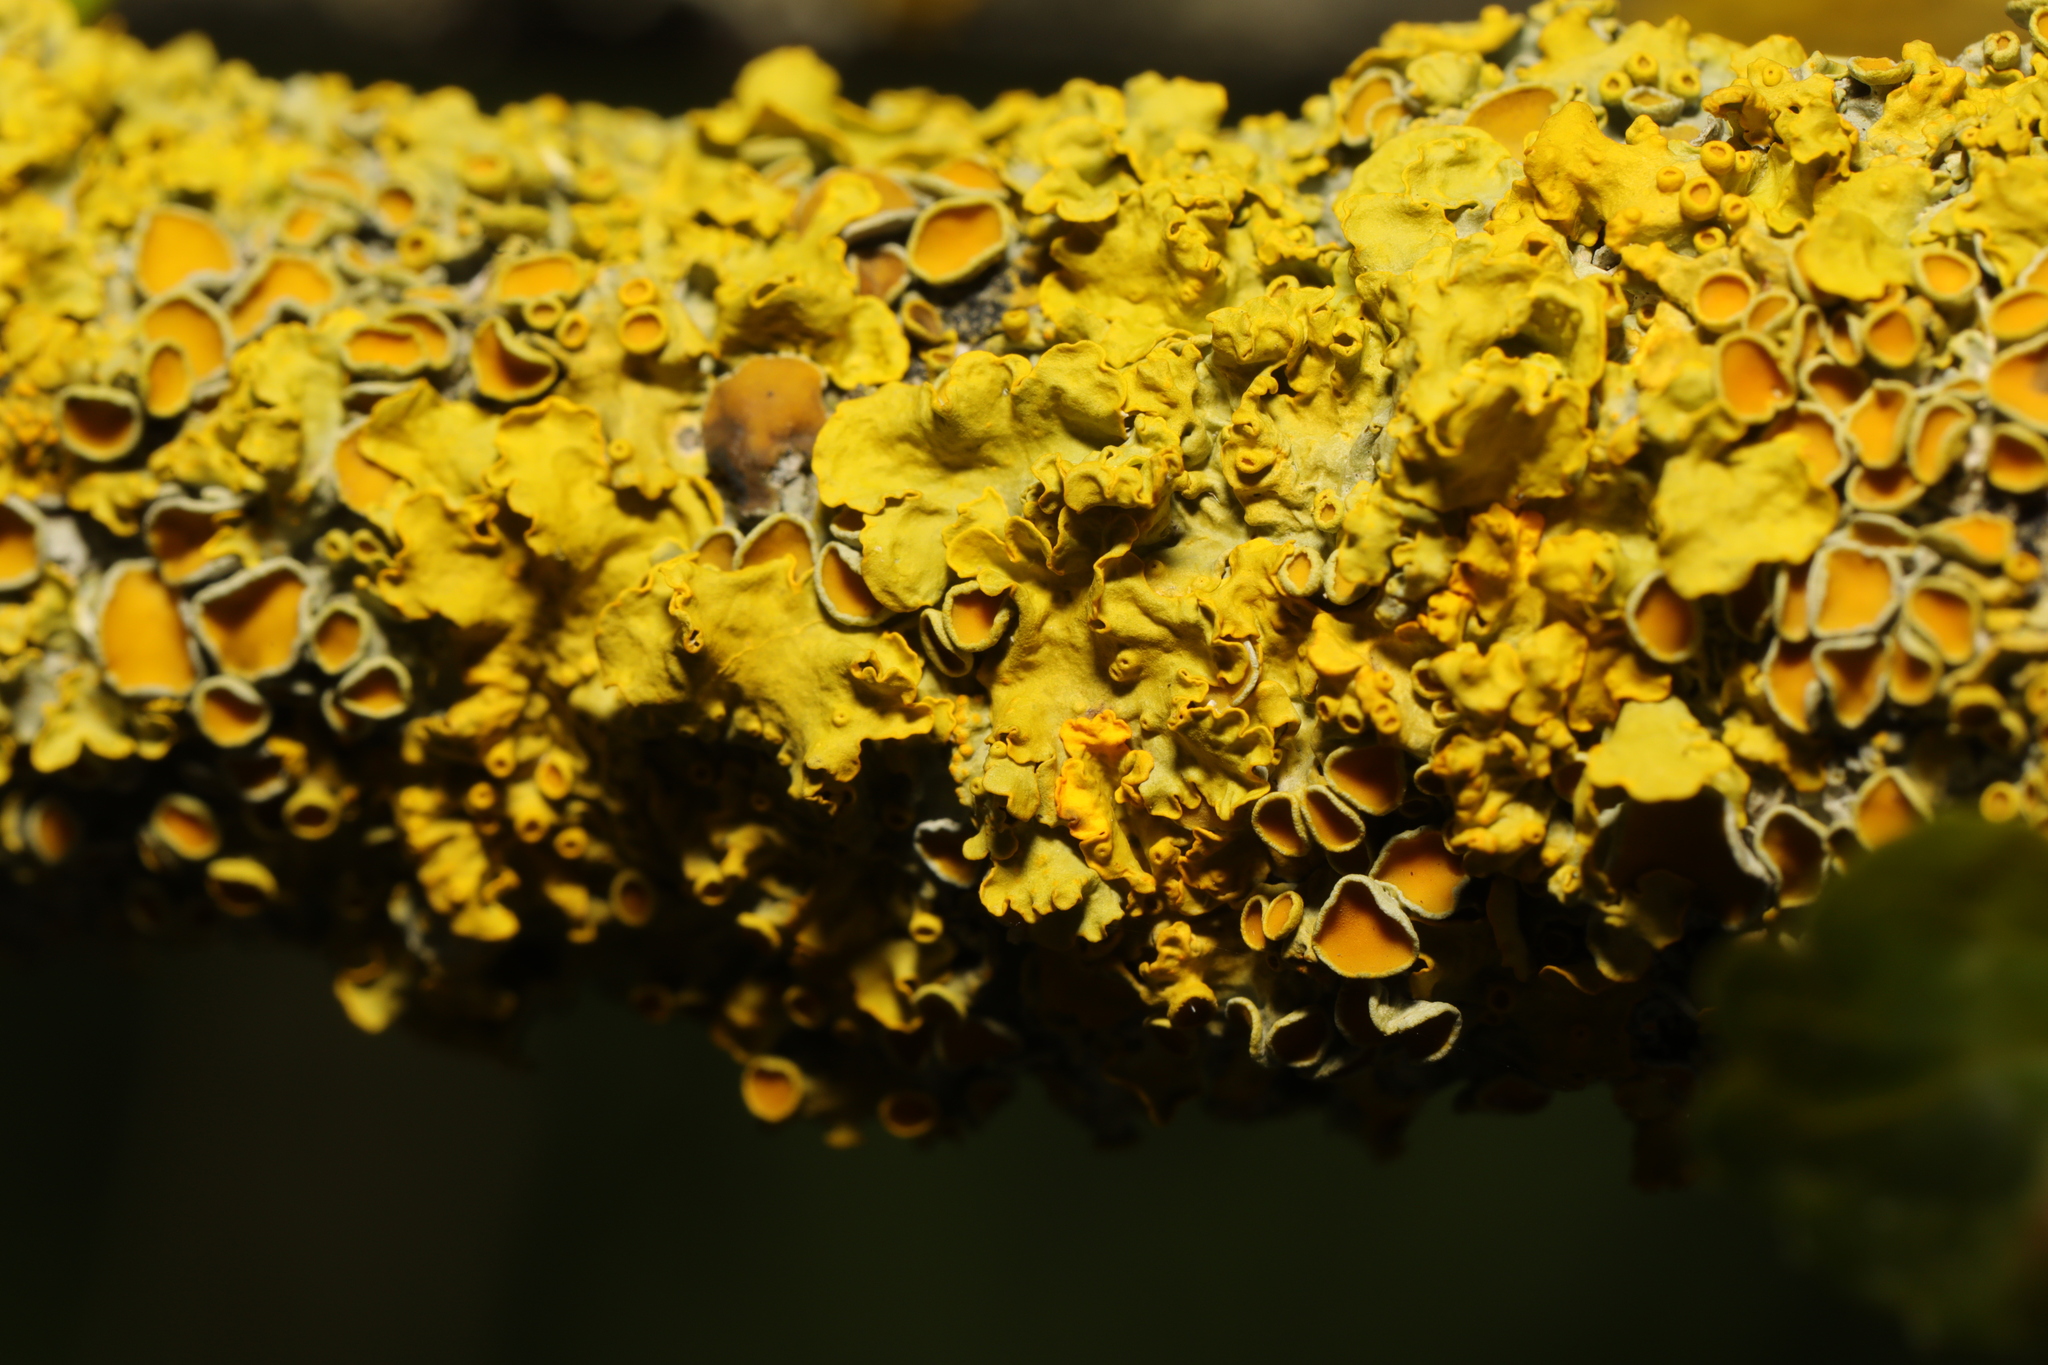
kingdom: Fungi
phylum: Ascomycota
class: Lecanoromycetes
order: Teloschistales
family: Teloschistaceae
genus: Xanthoria
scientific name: Xanthoria parietina
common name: Common orange lichen
